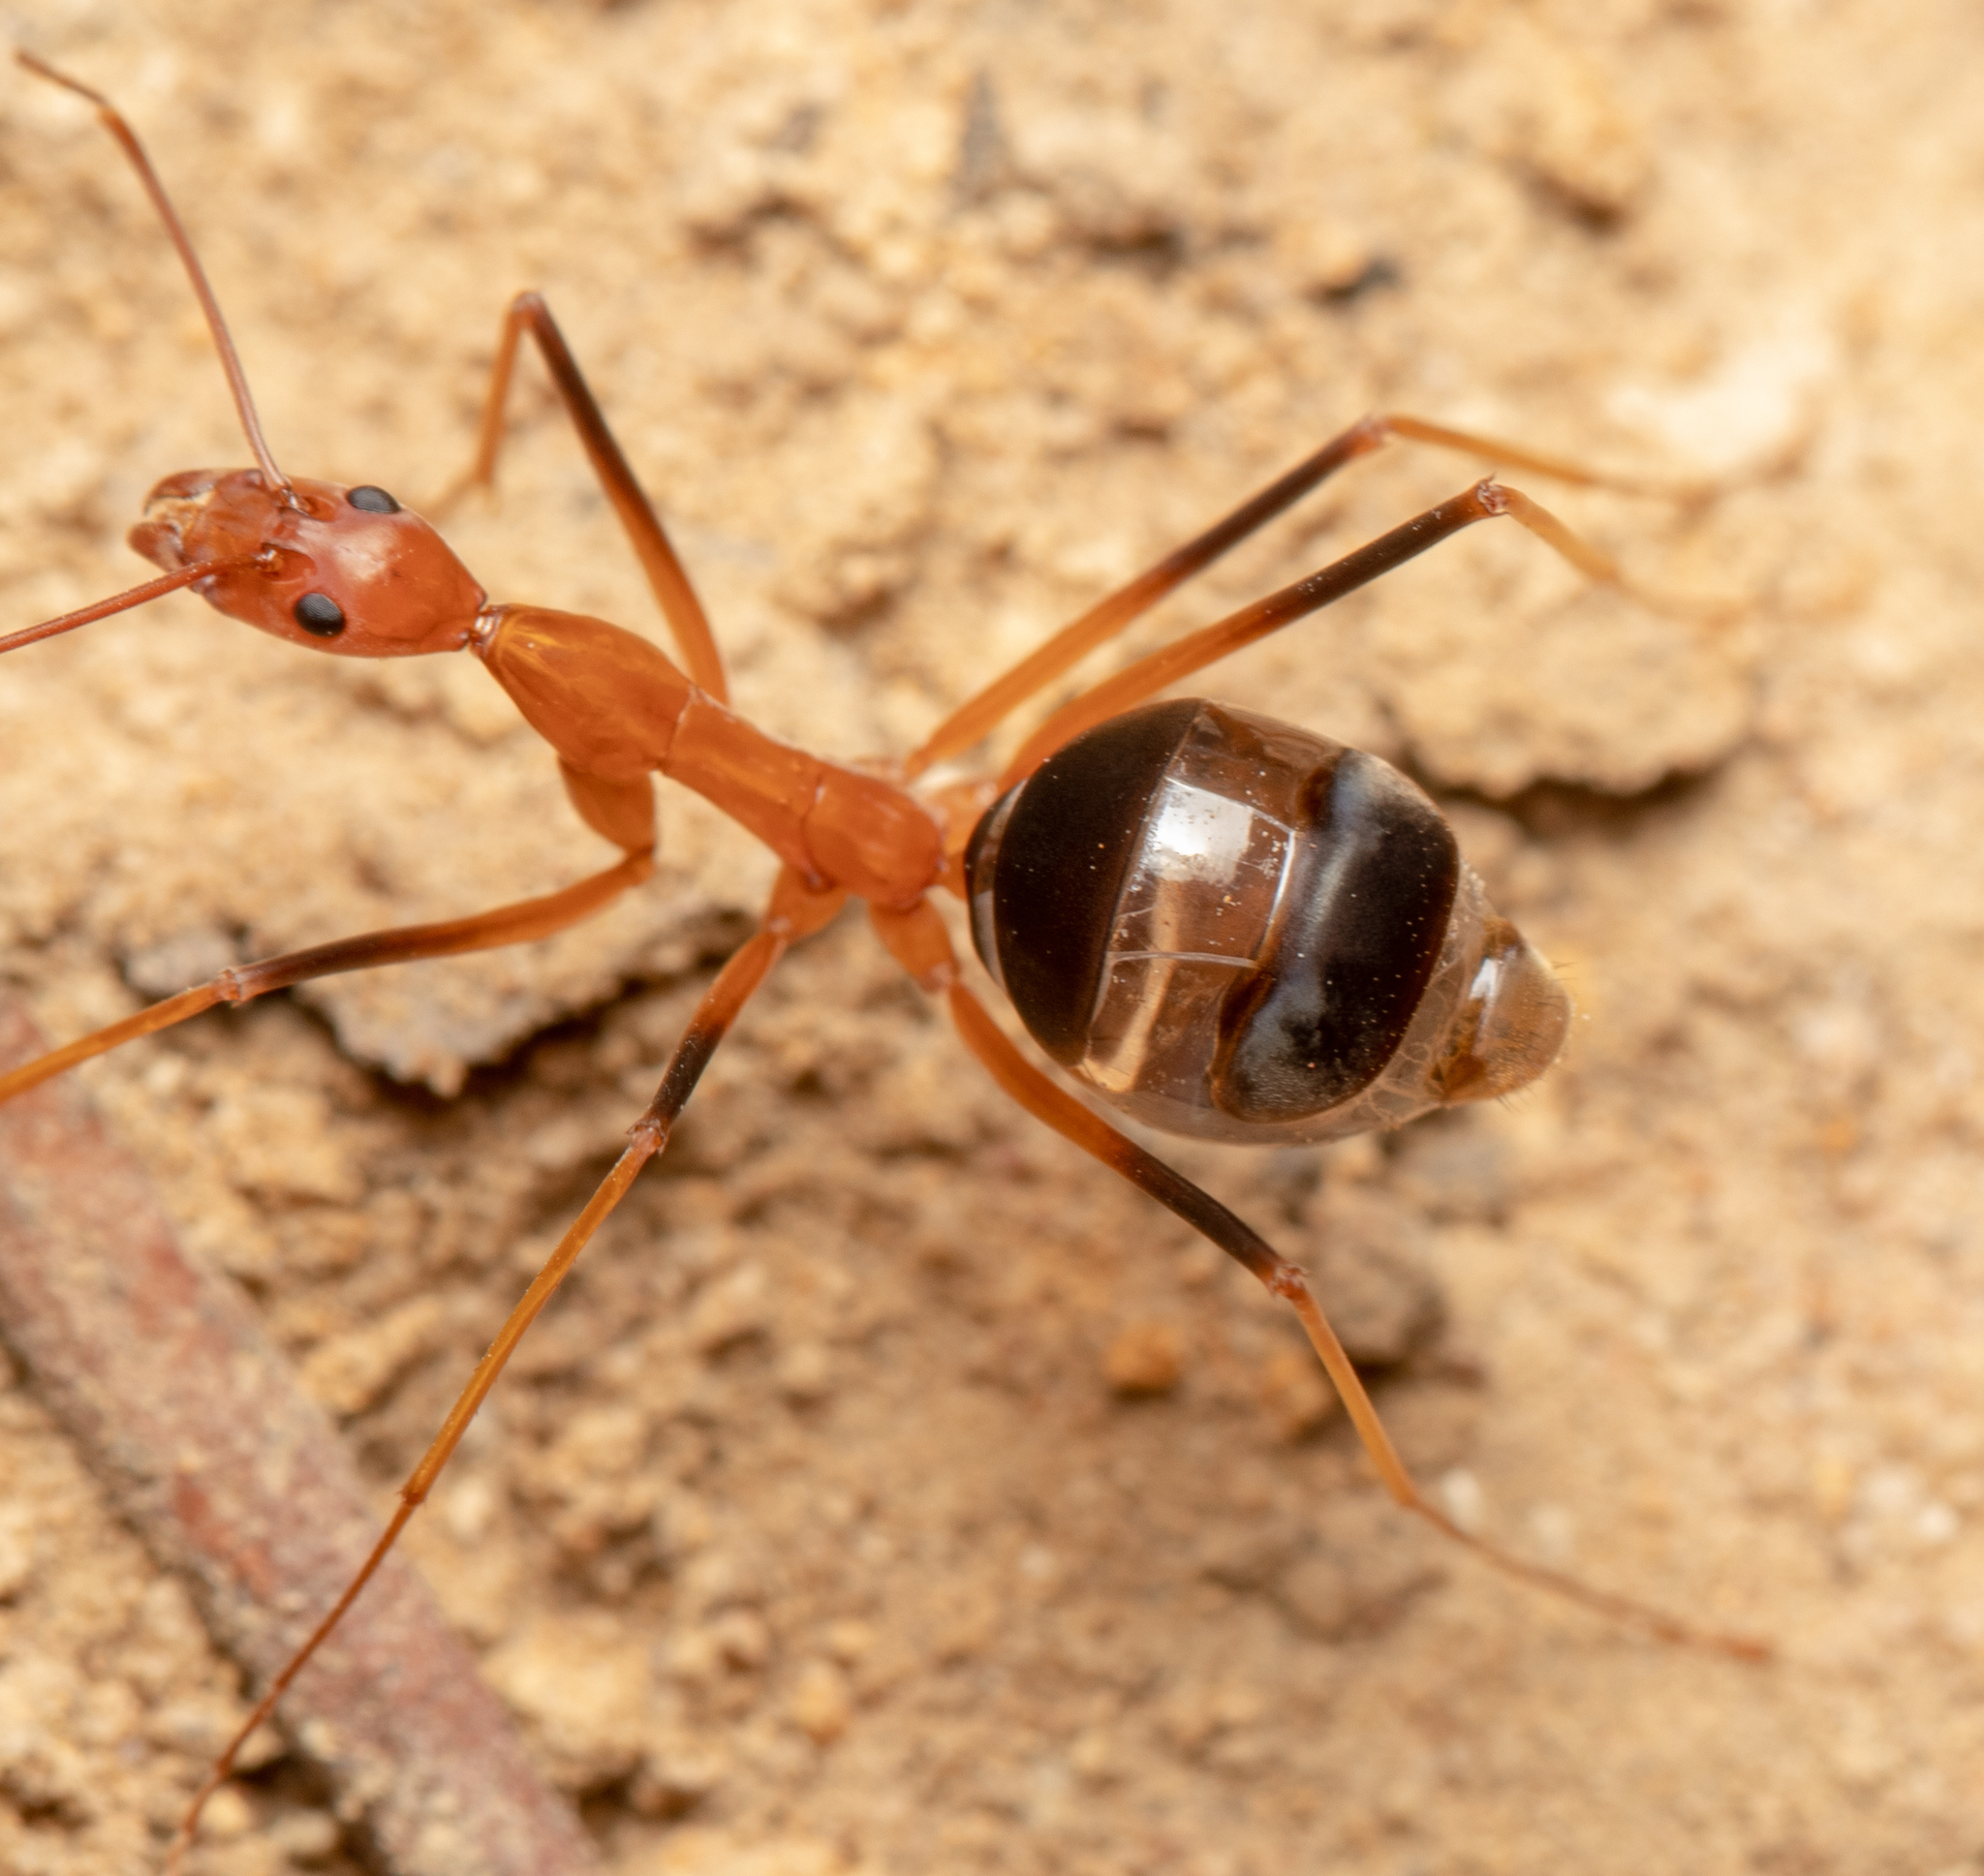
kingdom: Animalia
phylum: Arthropoda
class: Insecta
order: Hymenoptera
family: Formicidae
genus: Leptomyrmex
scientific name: Leptomyrmex rufipes
